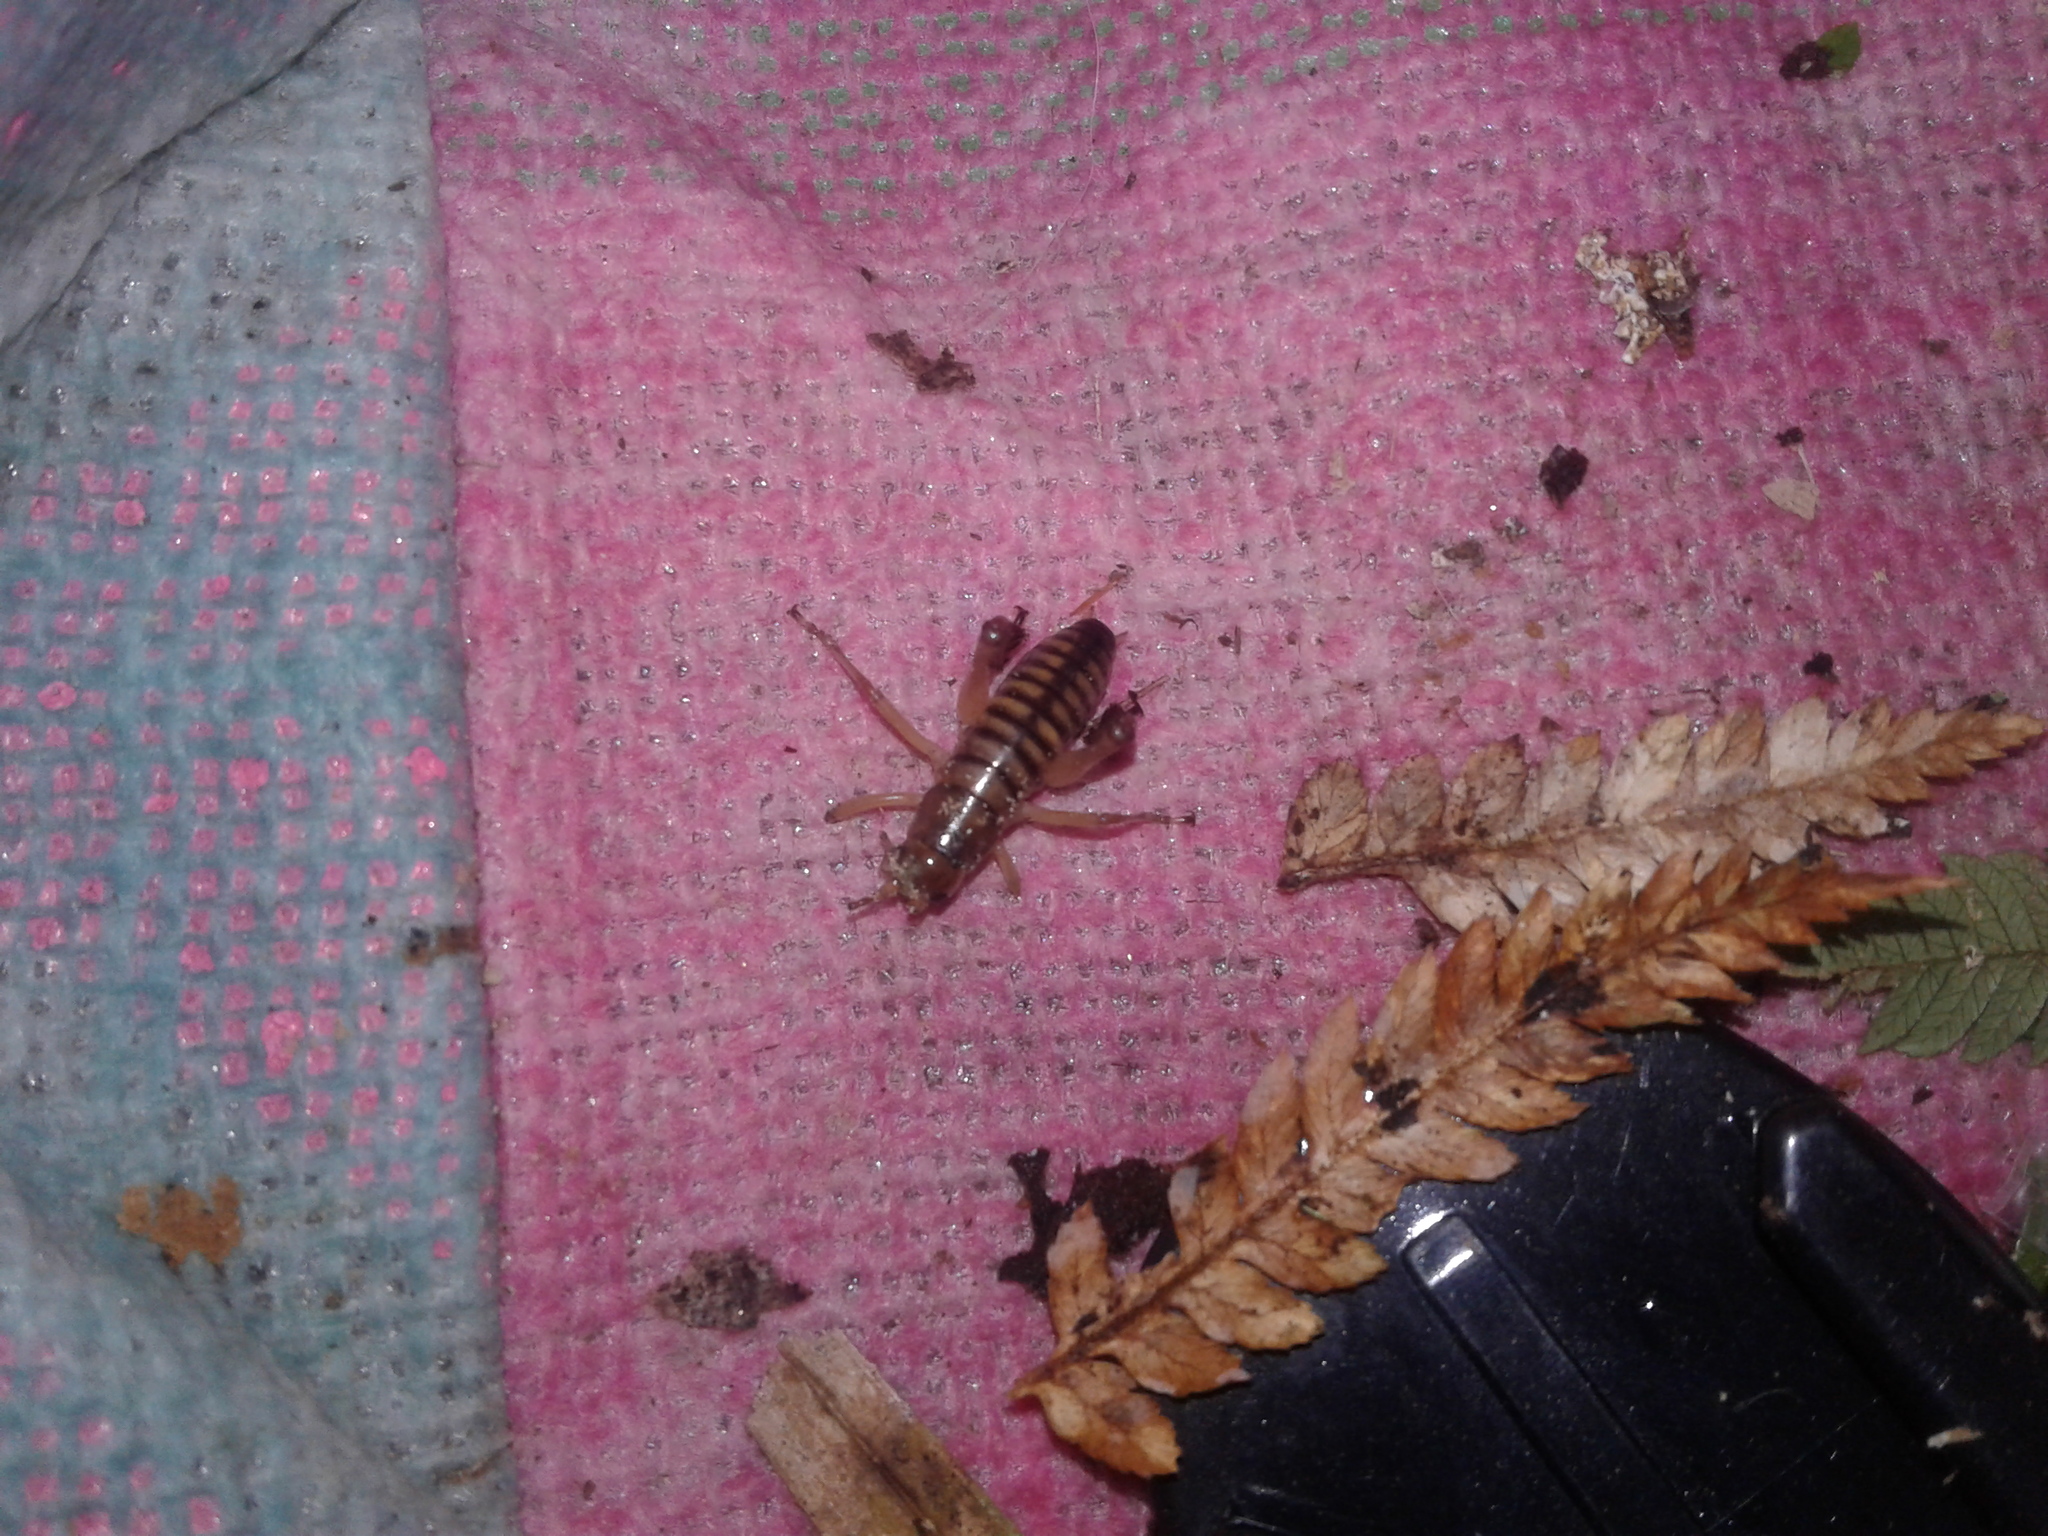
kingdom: Animalia
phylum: Arthropoda
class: Insecta
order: Orthoptera
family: Anostostomatidae
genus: Hemideina
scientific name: Hemideina crassidens
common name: Wellington tree weta
